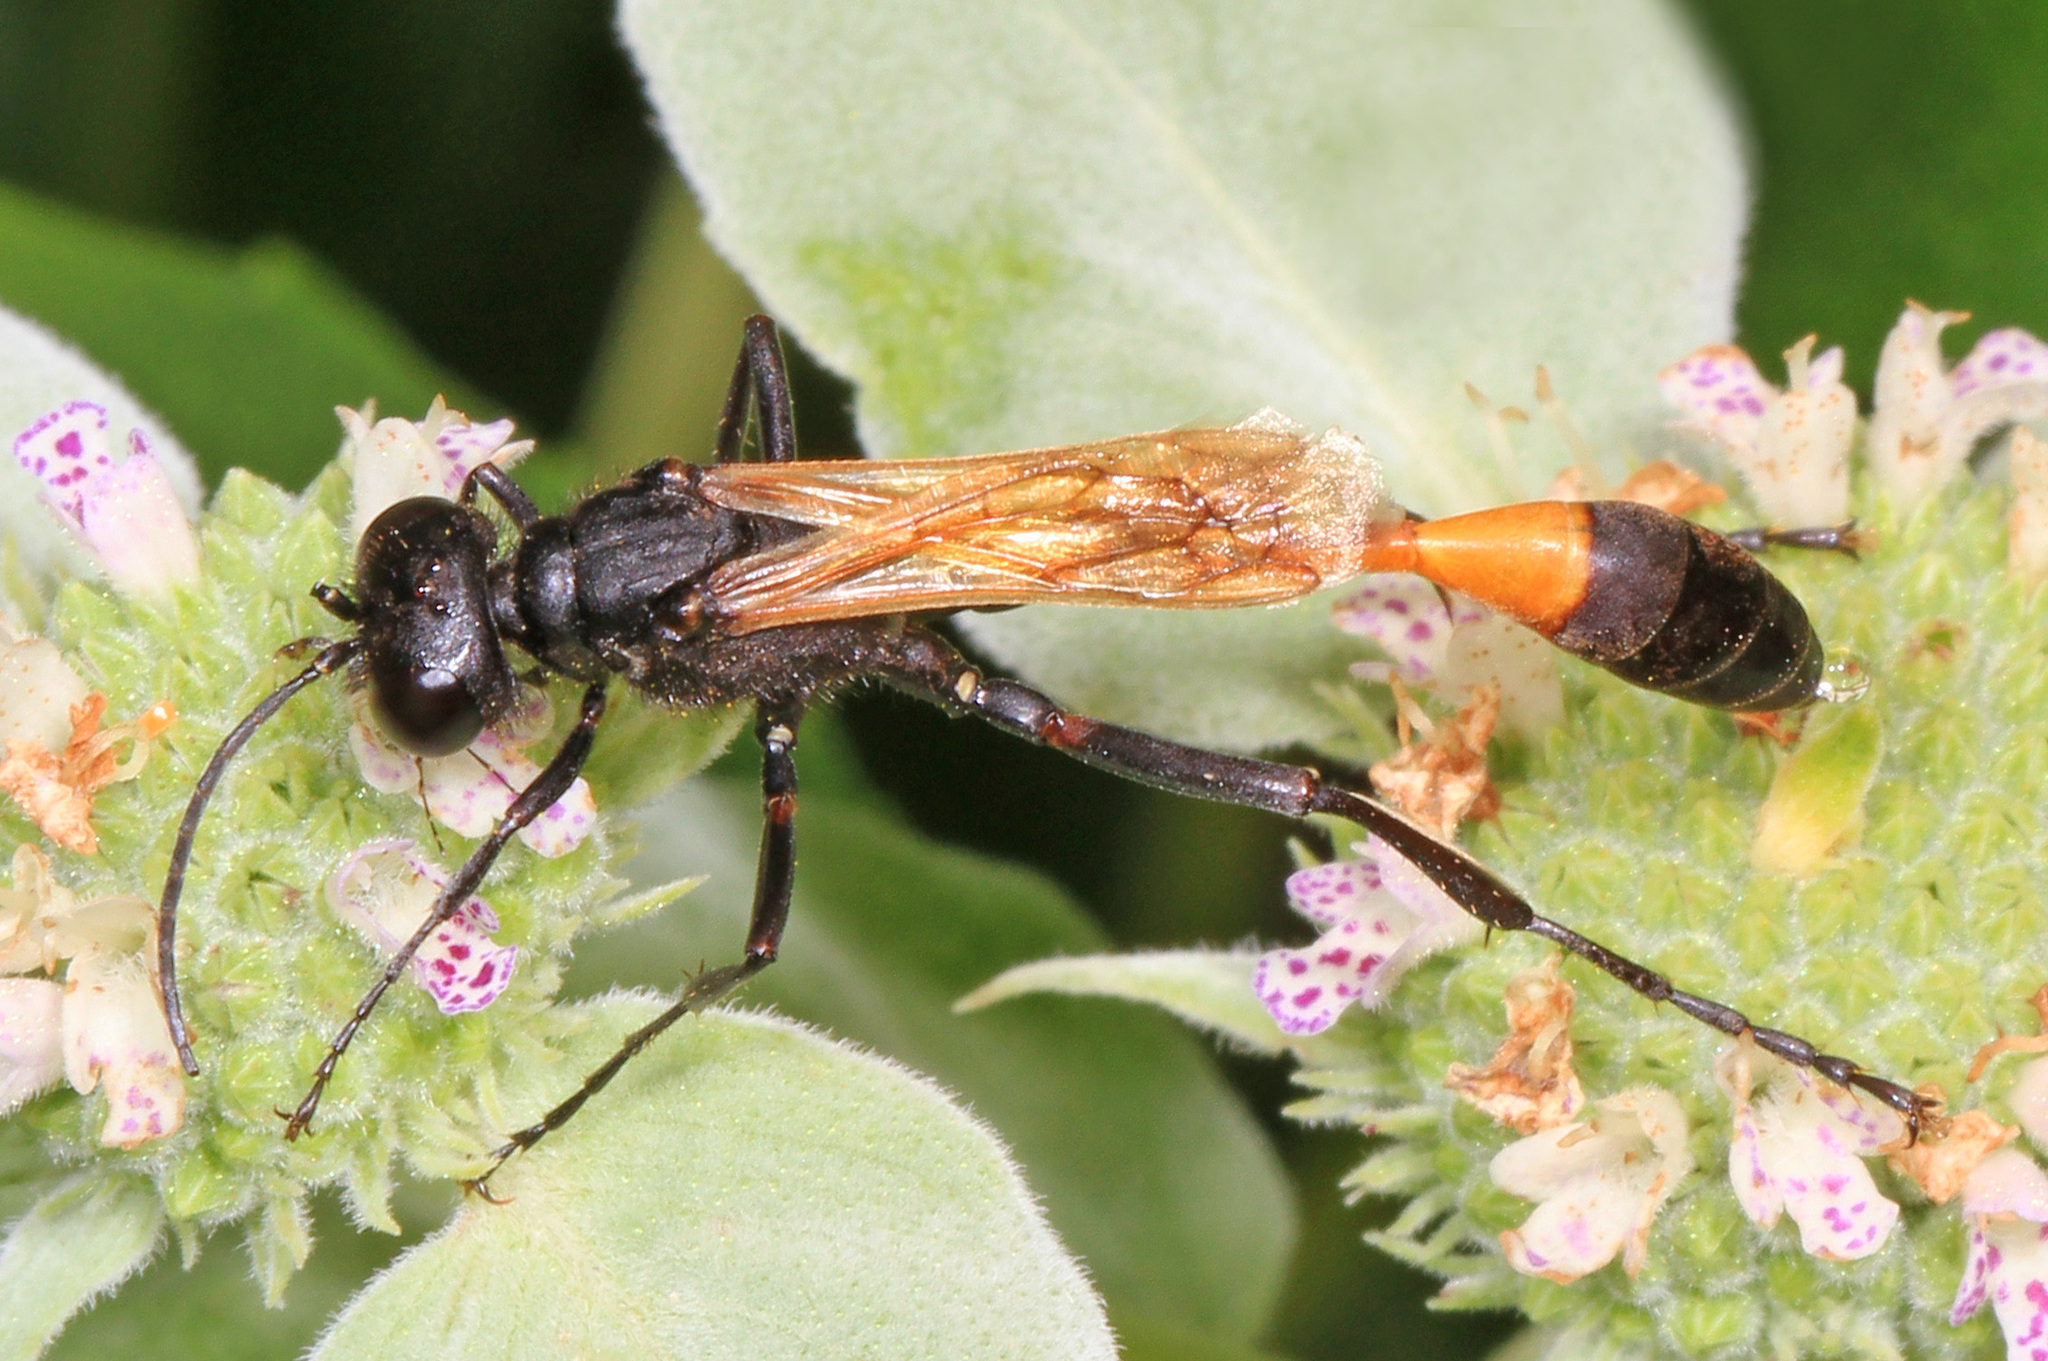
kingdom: Animalia
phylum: Arthropoda
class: Insecta
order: Hymenoptera
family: Sphecidae
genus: Ammophila
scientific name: Ammophila pictipennis
